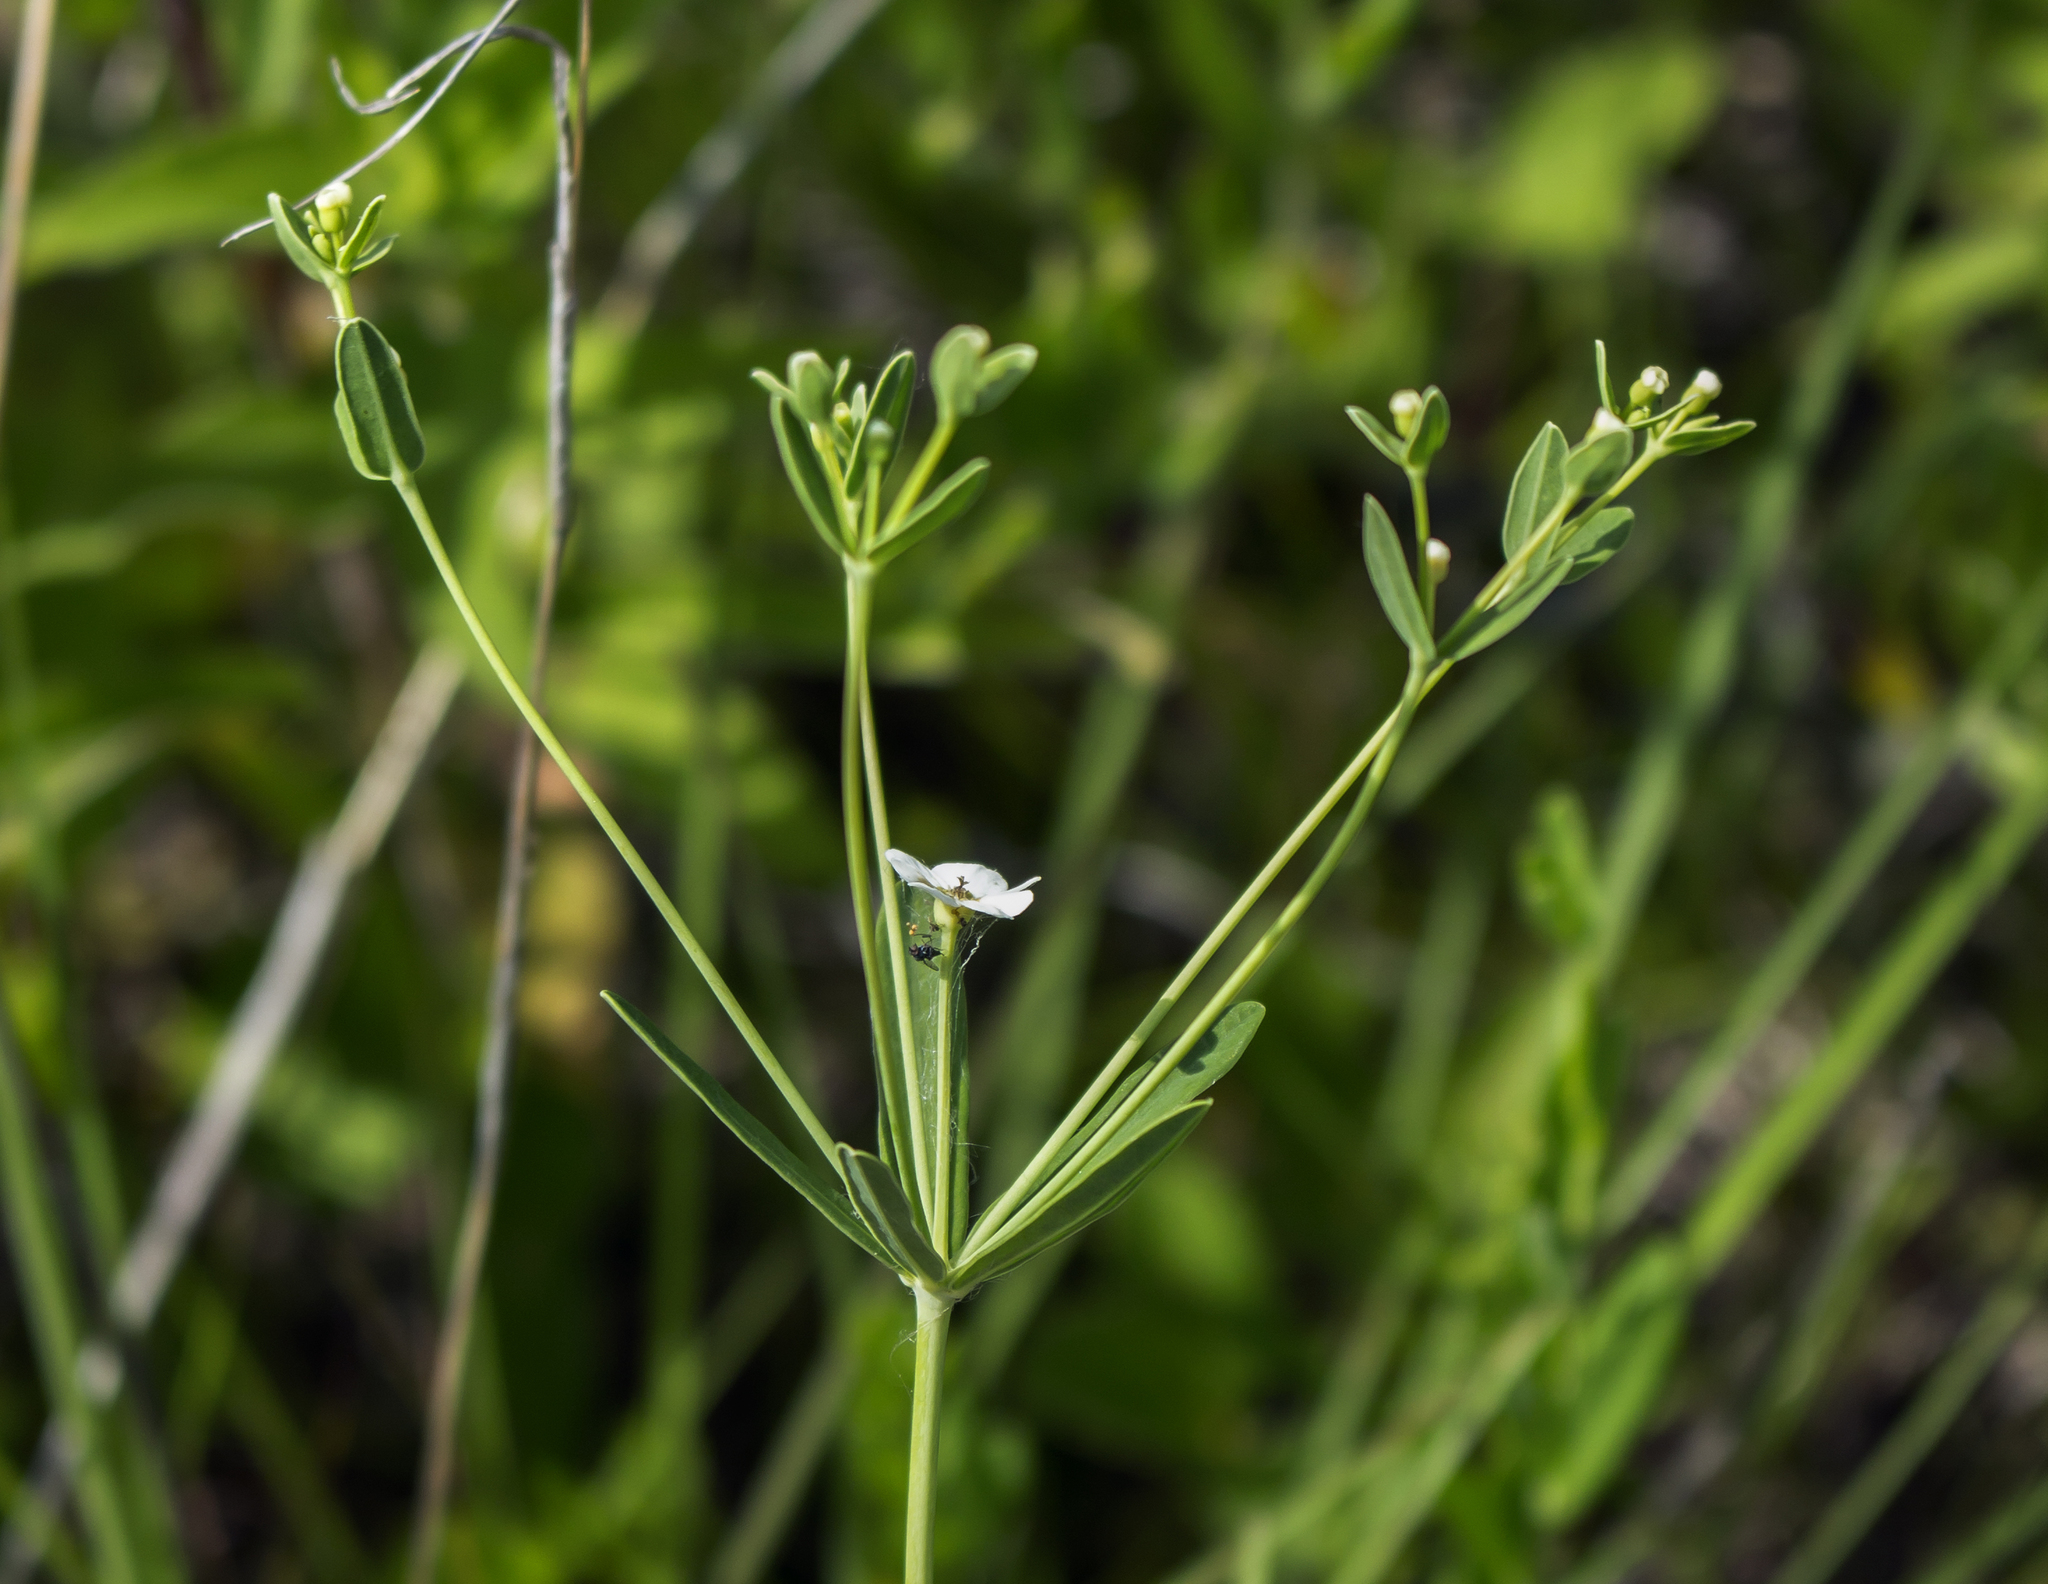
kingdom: Plantae
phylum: Tracheophyta
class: Magnoliopsida
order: Malpighiales
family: Euphorbiaceae
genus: Euphorbia
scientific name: Euphorbia corollata
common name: Flowering spurge
